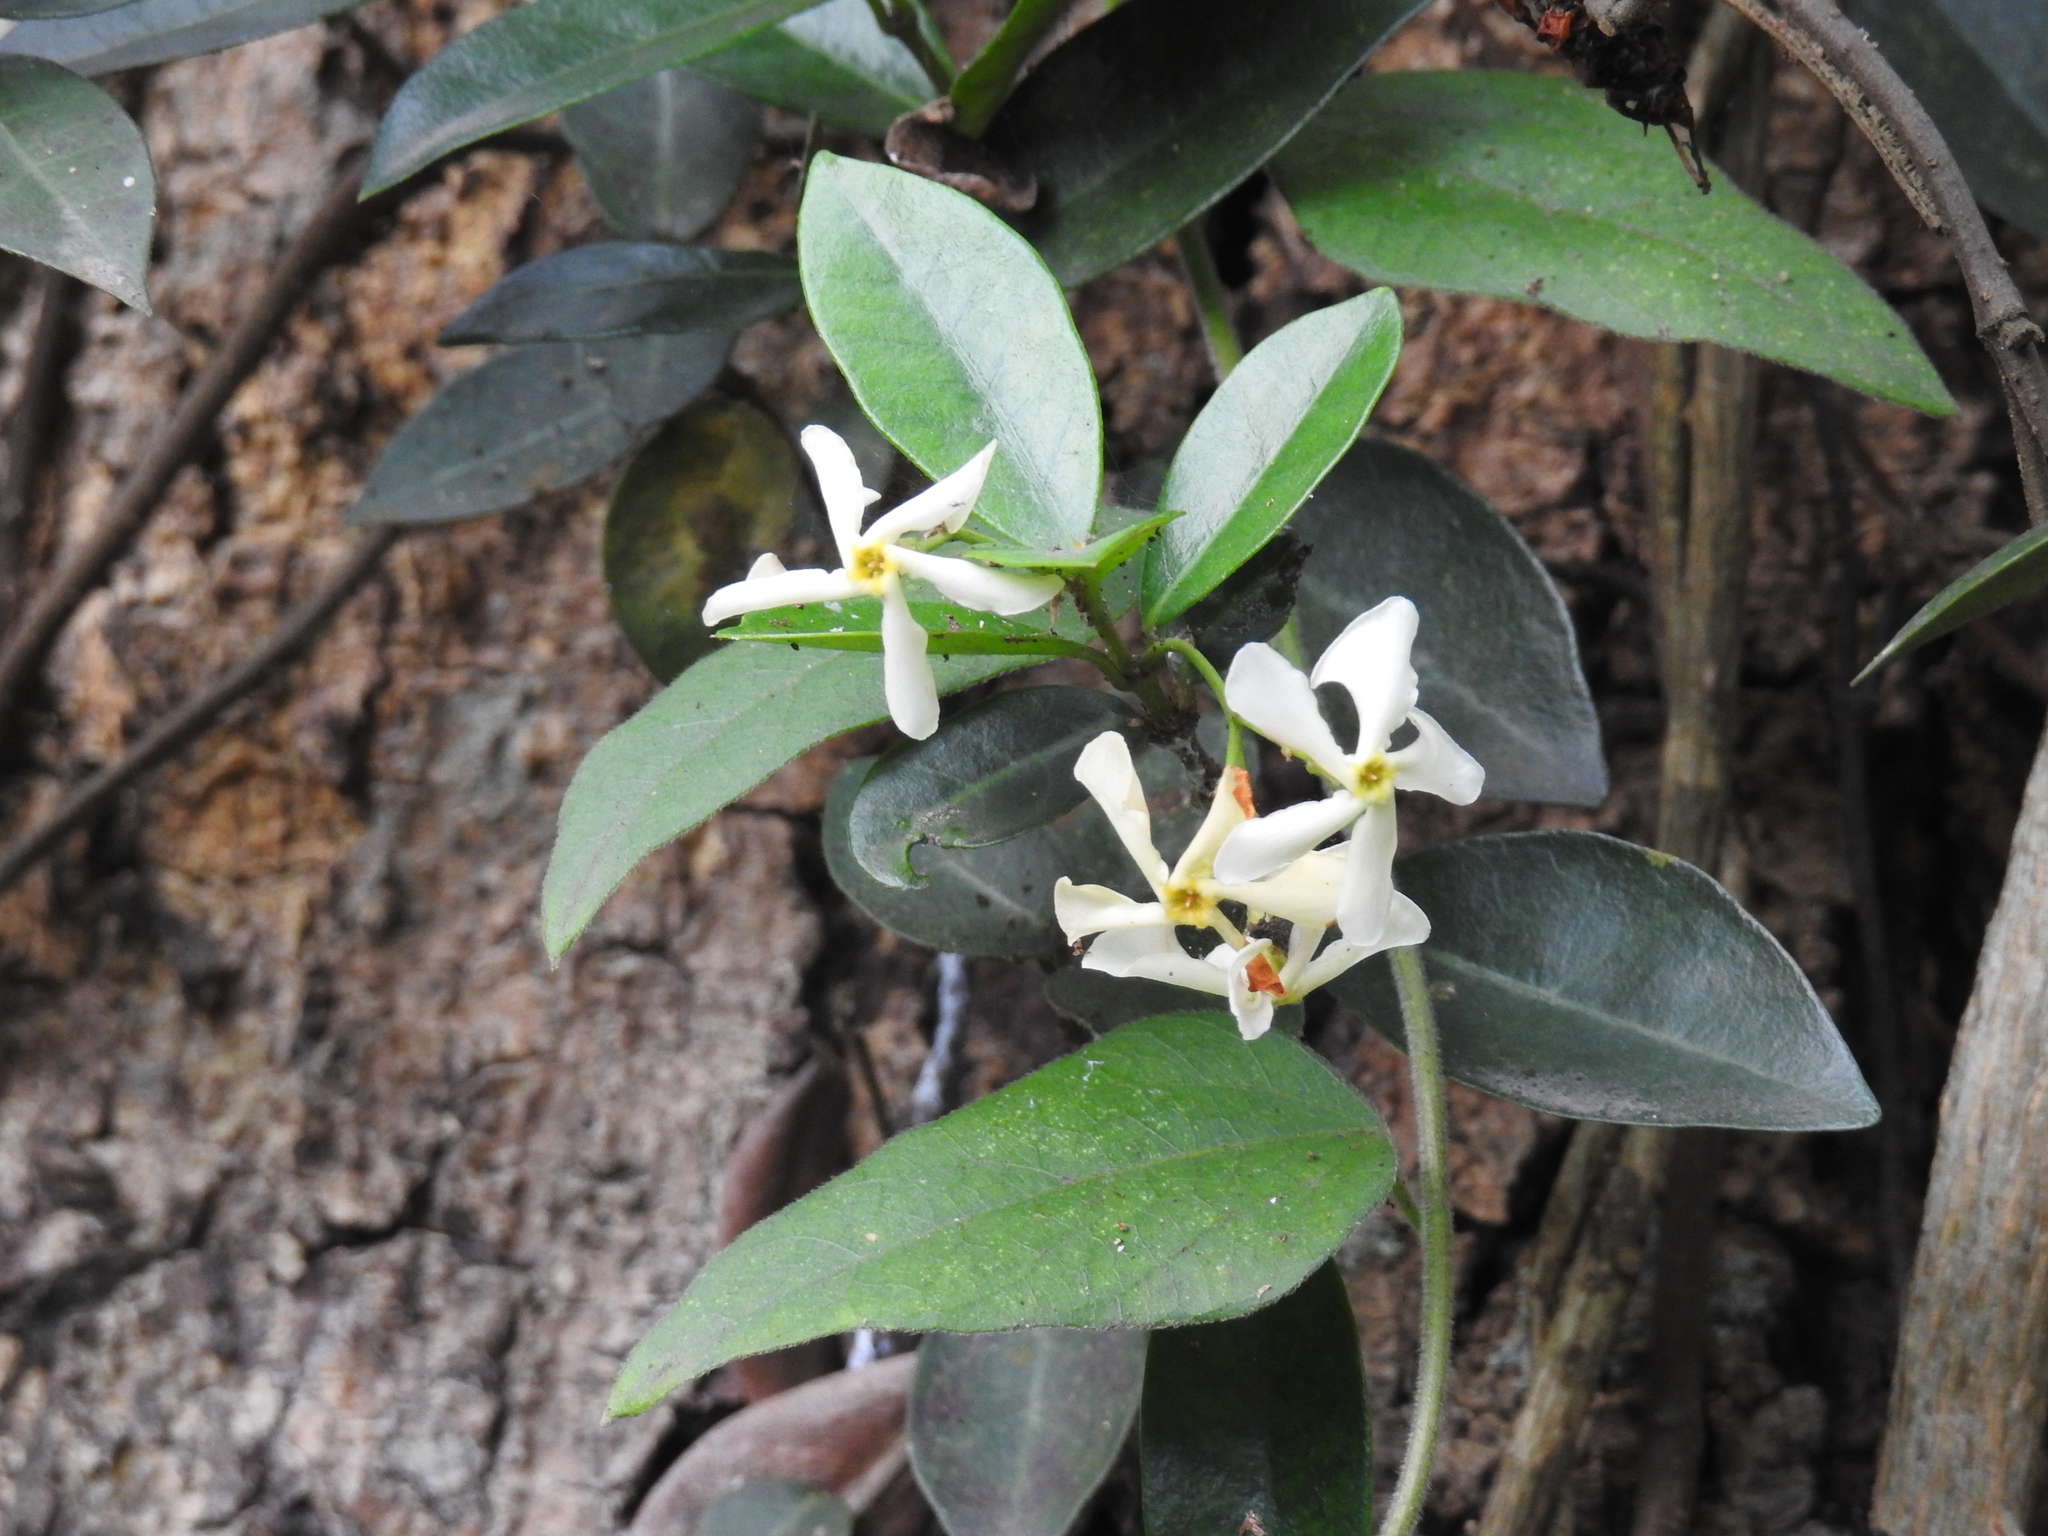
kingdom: Plantae
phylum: Tracheophyta
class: Magnoliopsida
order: Gentianales
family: Apocynaceae
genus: Trachelospermum
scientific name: Trachelospermum jasminoides
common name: Confederate jasmine
